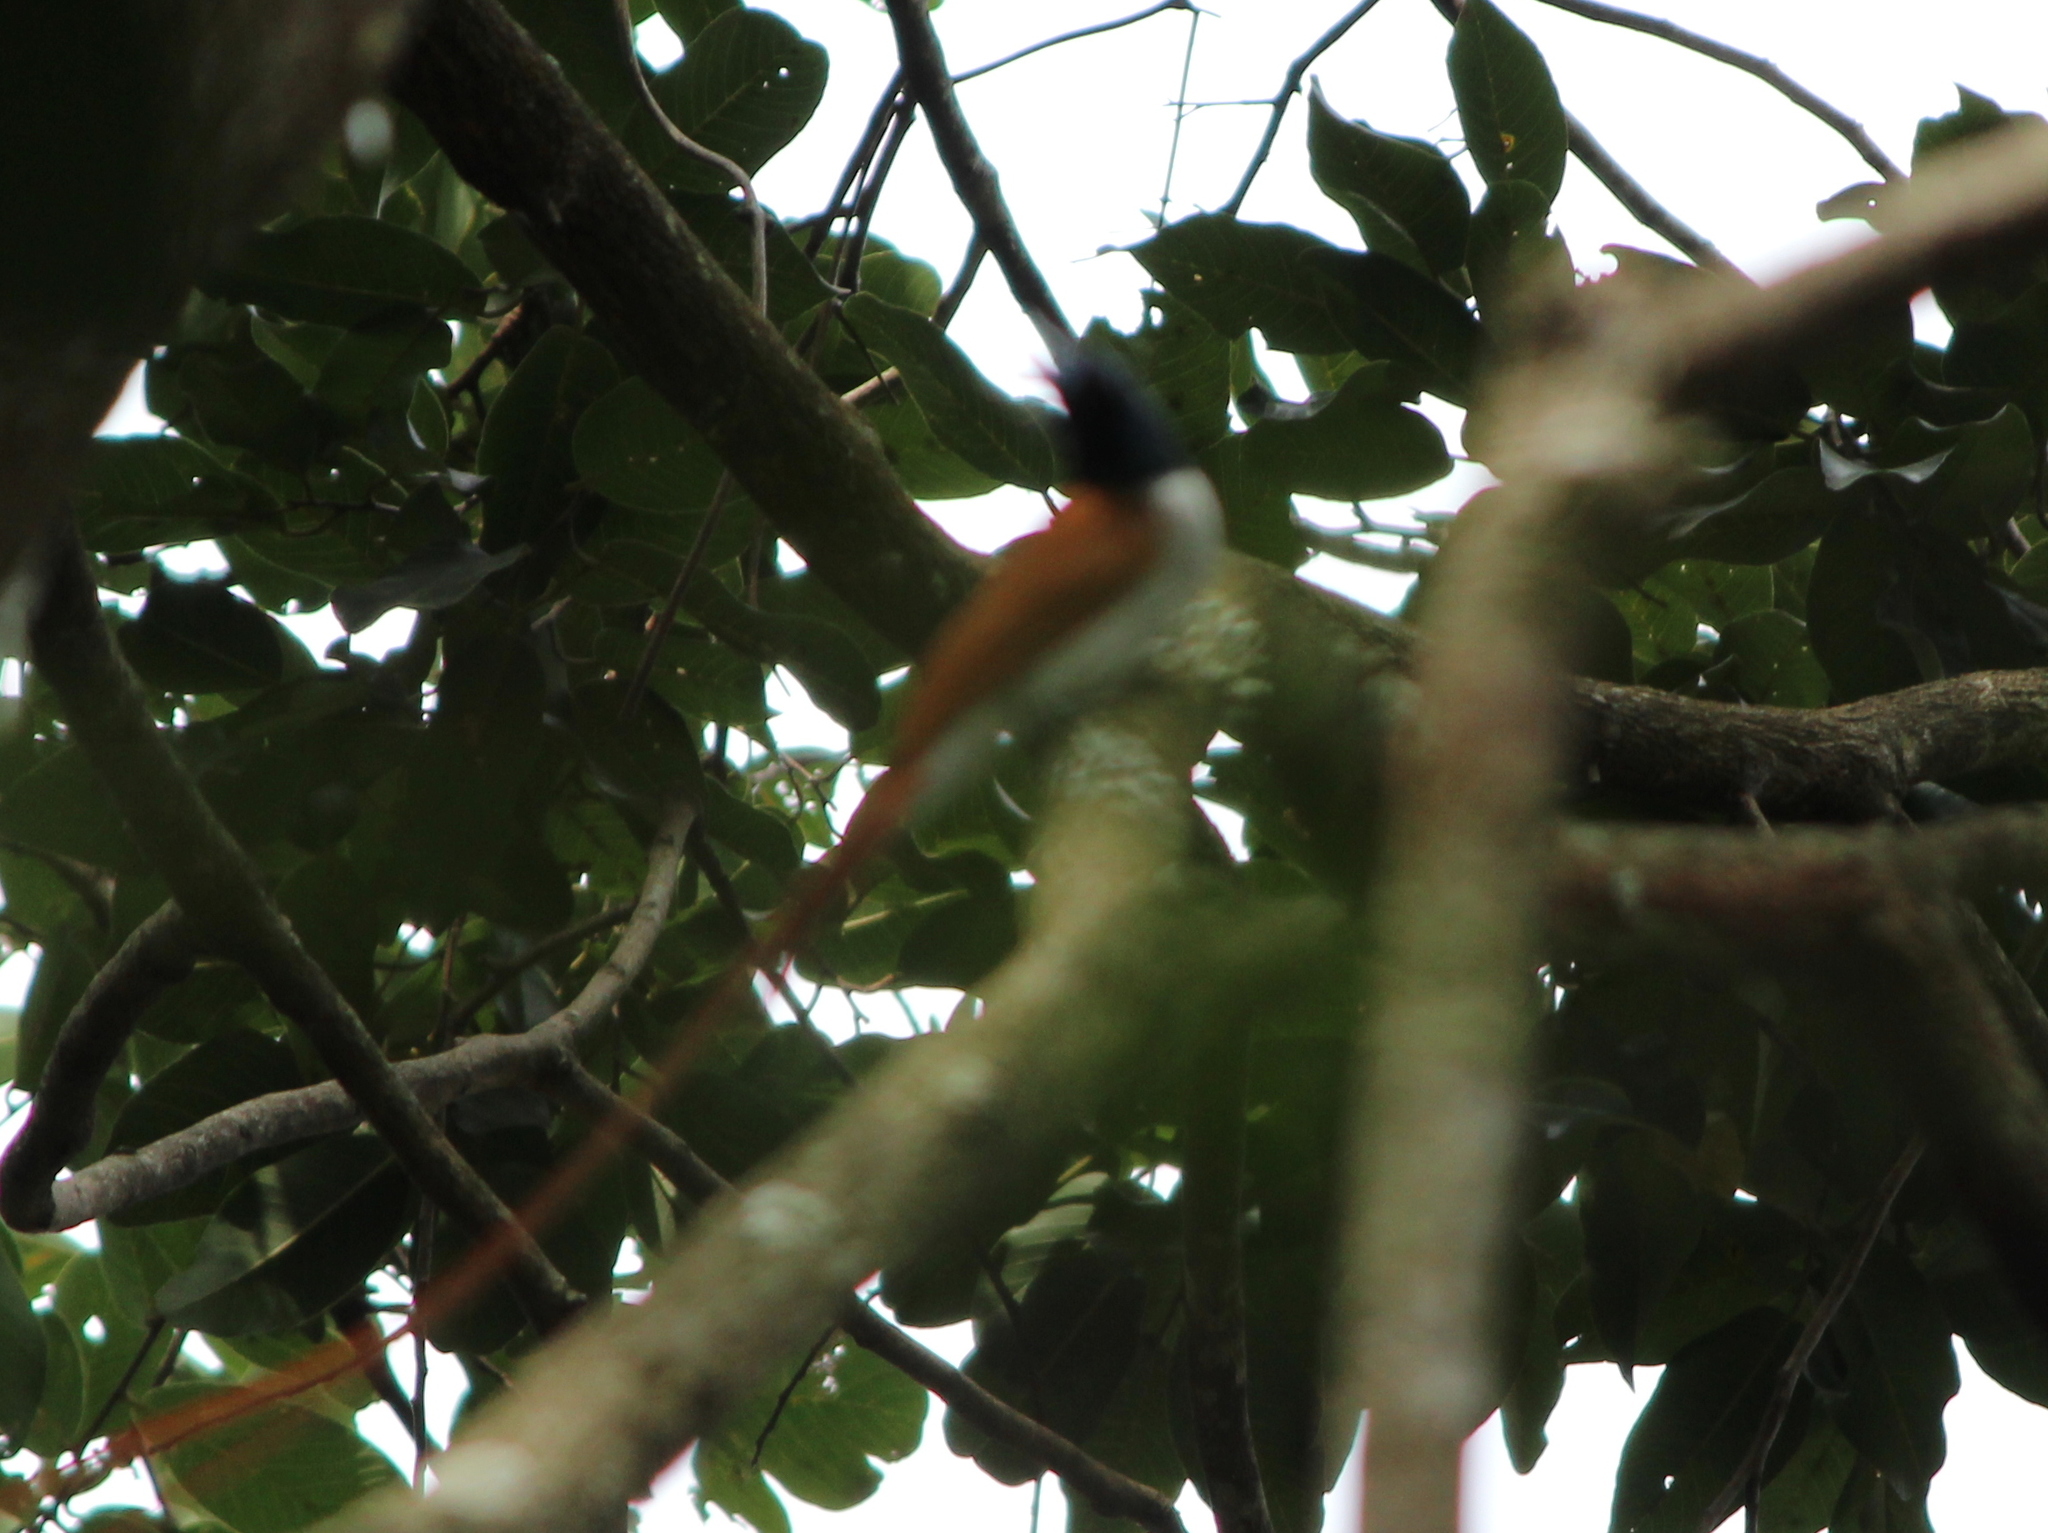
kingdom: Animalia
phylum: Chordata
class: Aves
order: Passeriformes
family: Monarchidae
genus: Terpsiphone
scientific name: Terpsiphone paradisi
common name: Indian paradise flycatcher
